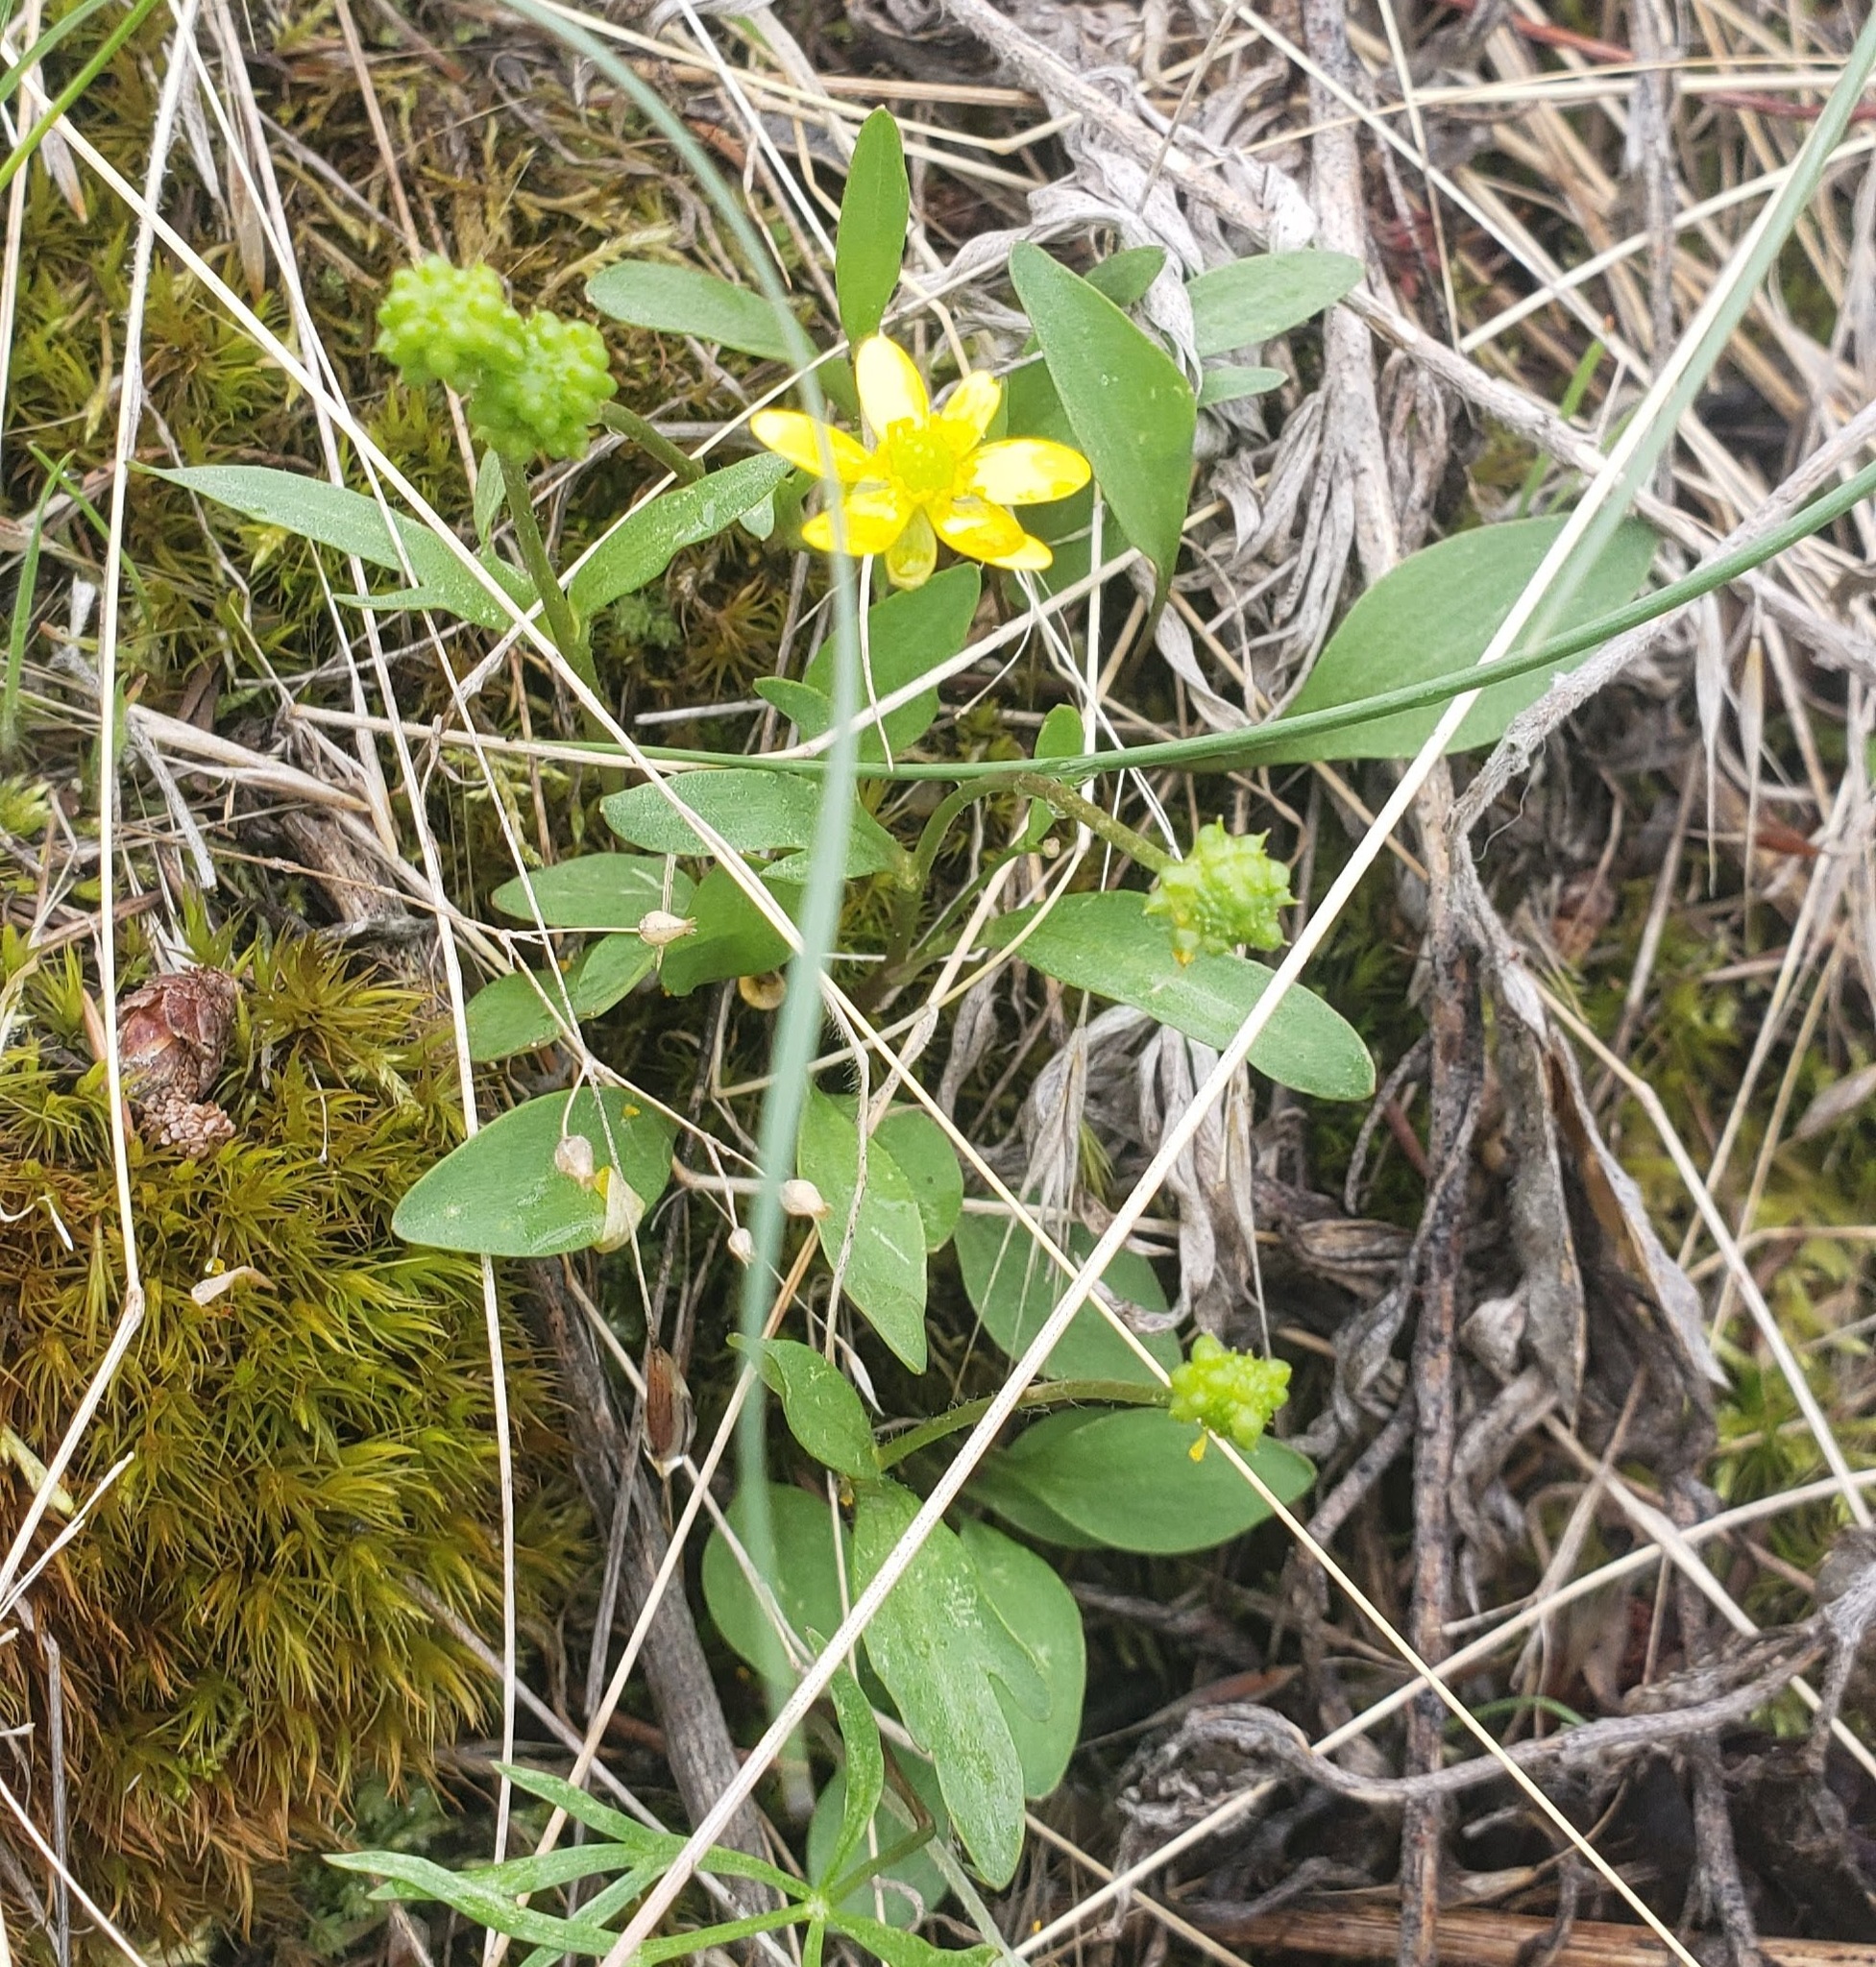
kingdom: Plantae
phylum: Tracheophyta
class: Magnoliopsida
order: Ranunculales
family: Ranunculaceae
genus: Ranunculus
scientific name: Ranunculus glaberrimus
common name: Sagebrush buttercup
